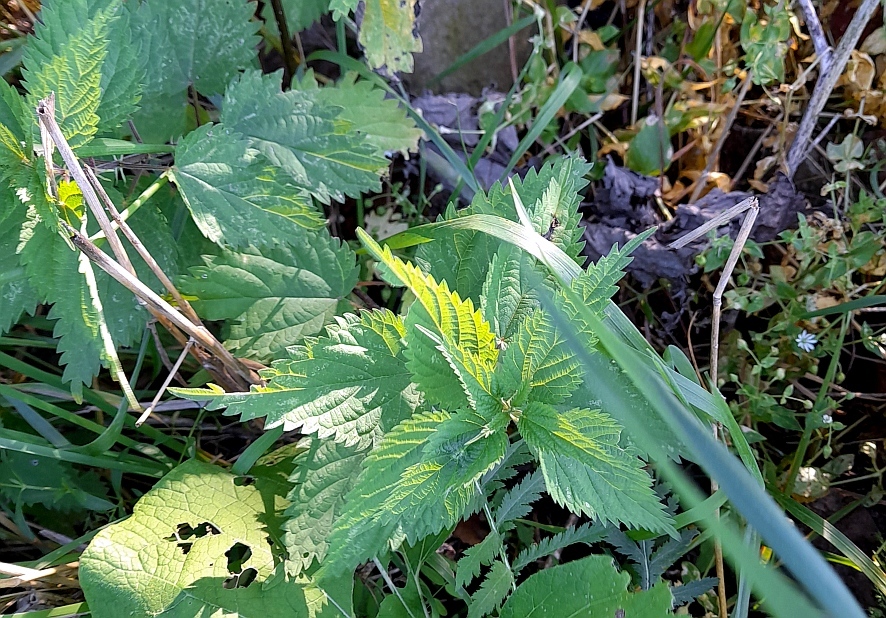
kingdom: Plantae
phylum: Tracheophyta
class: Magnoliopsida
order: Rosales
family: Urticaceae
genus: Urtica
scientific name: Urtica dioica
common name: Common nettle
